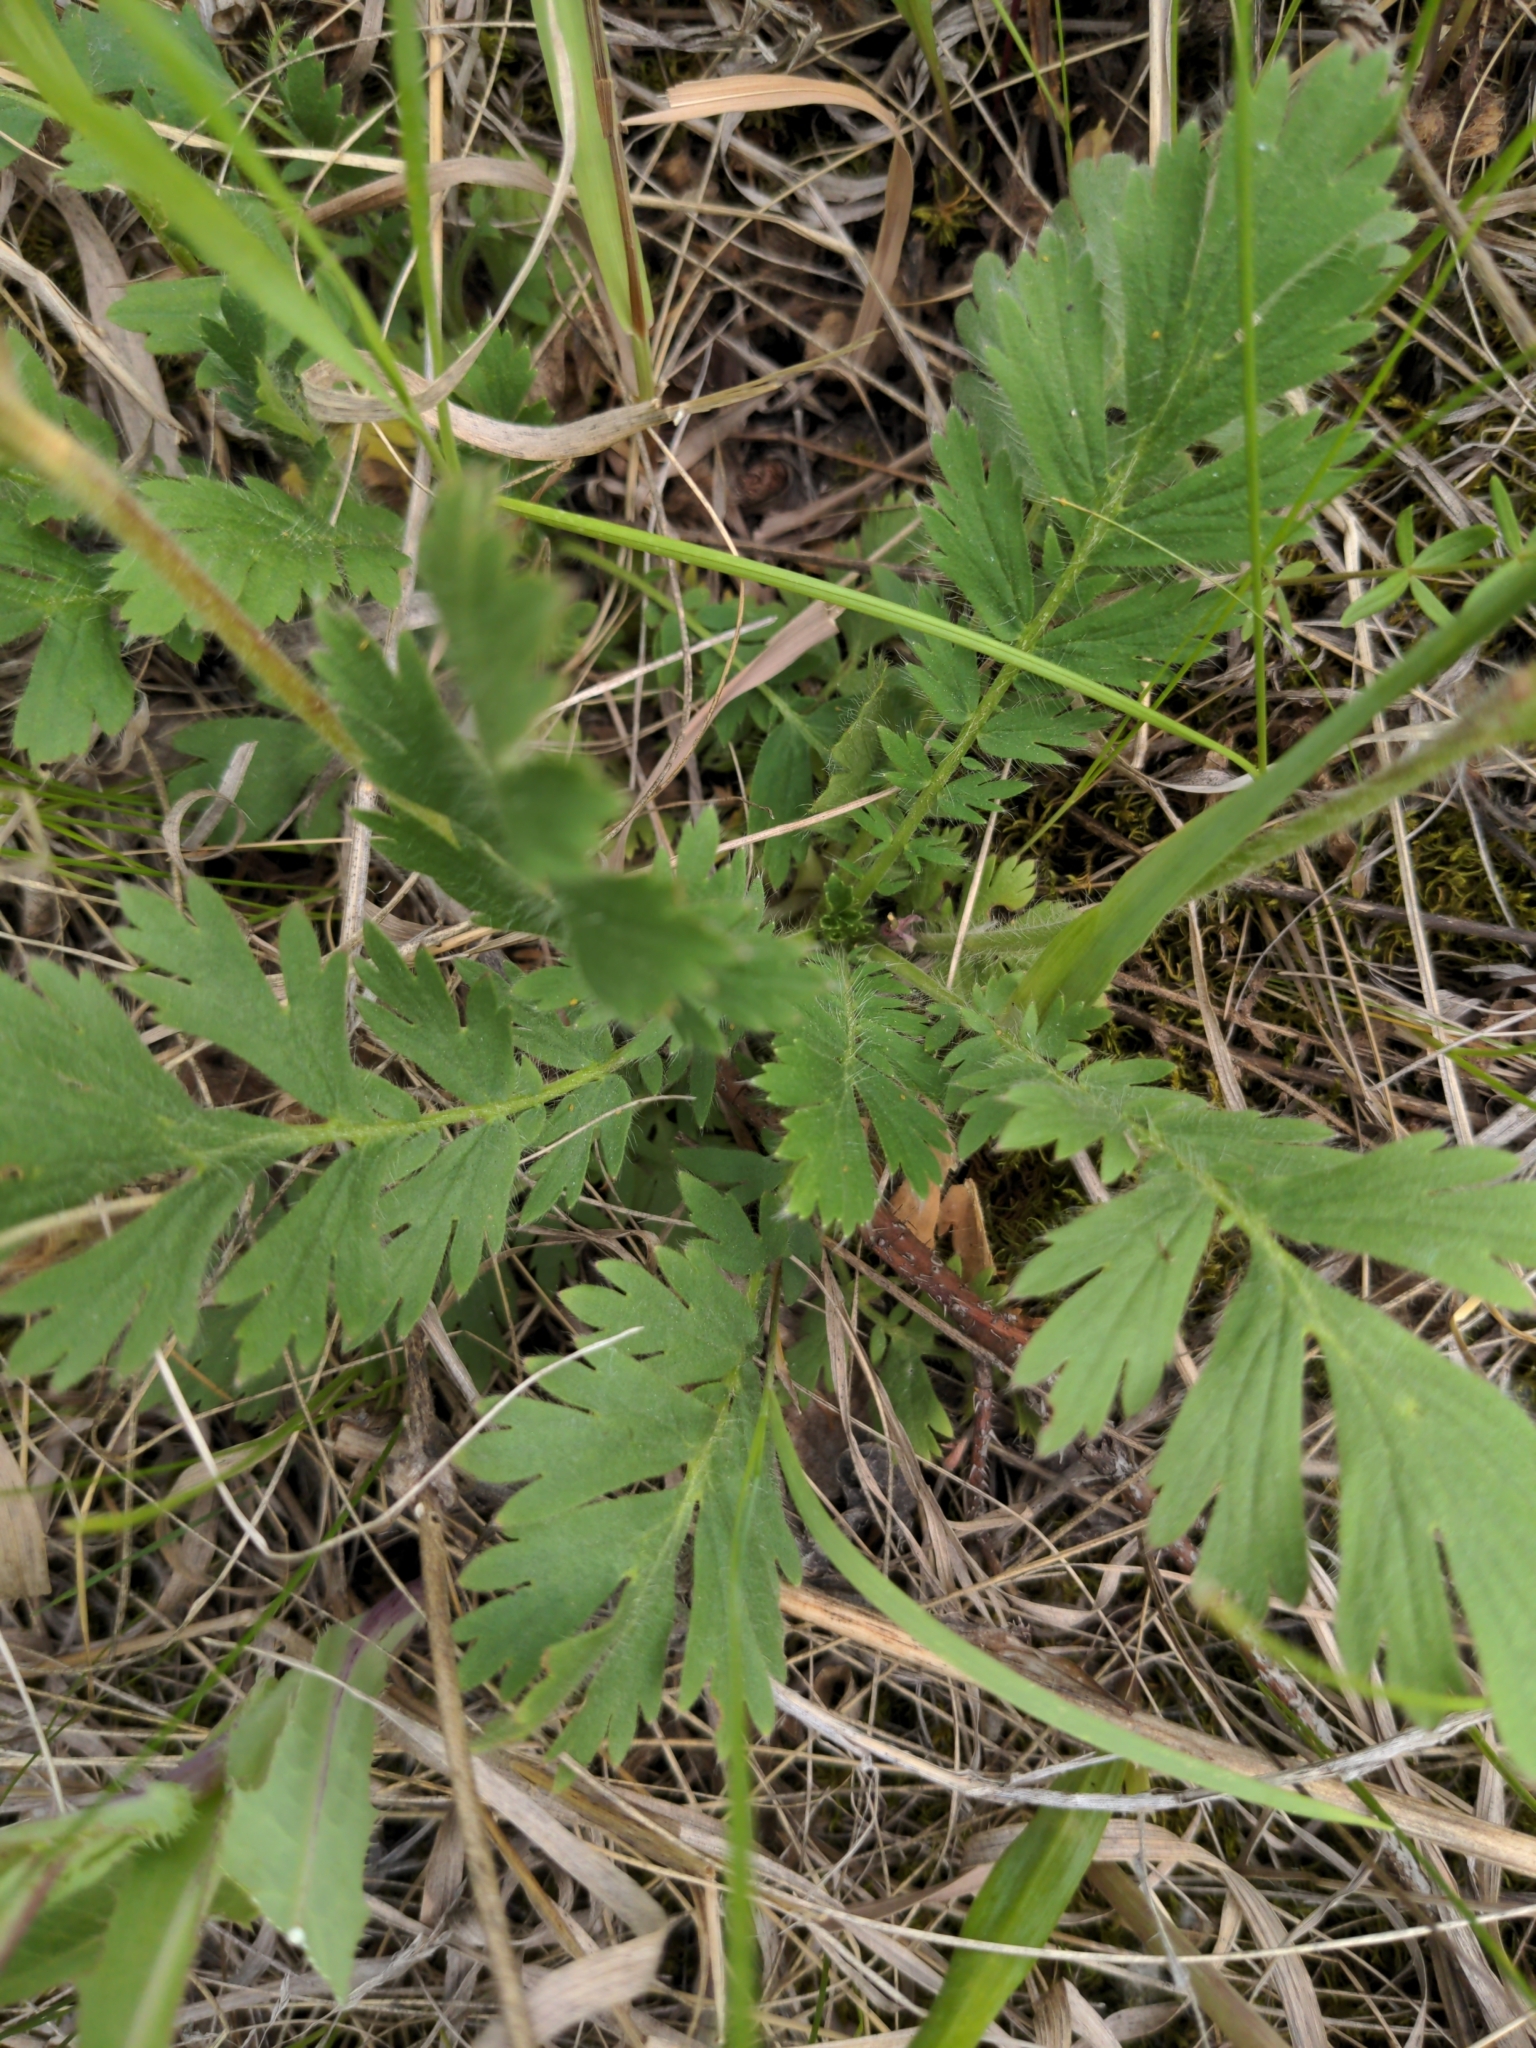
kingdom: Plantae
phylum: Tracheophyta
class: Magnoliopsida
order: Rosales
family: Rosaceae
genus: Geum
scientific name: Geum triflorum
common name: Old man's whiskers
